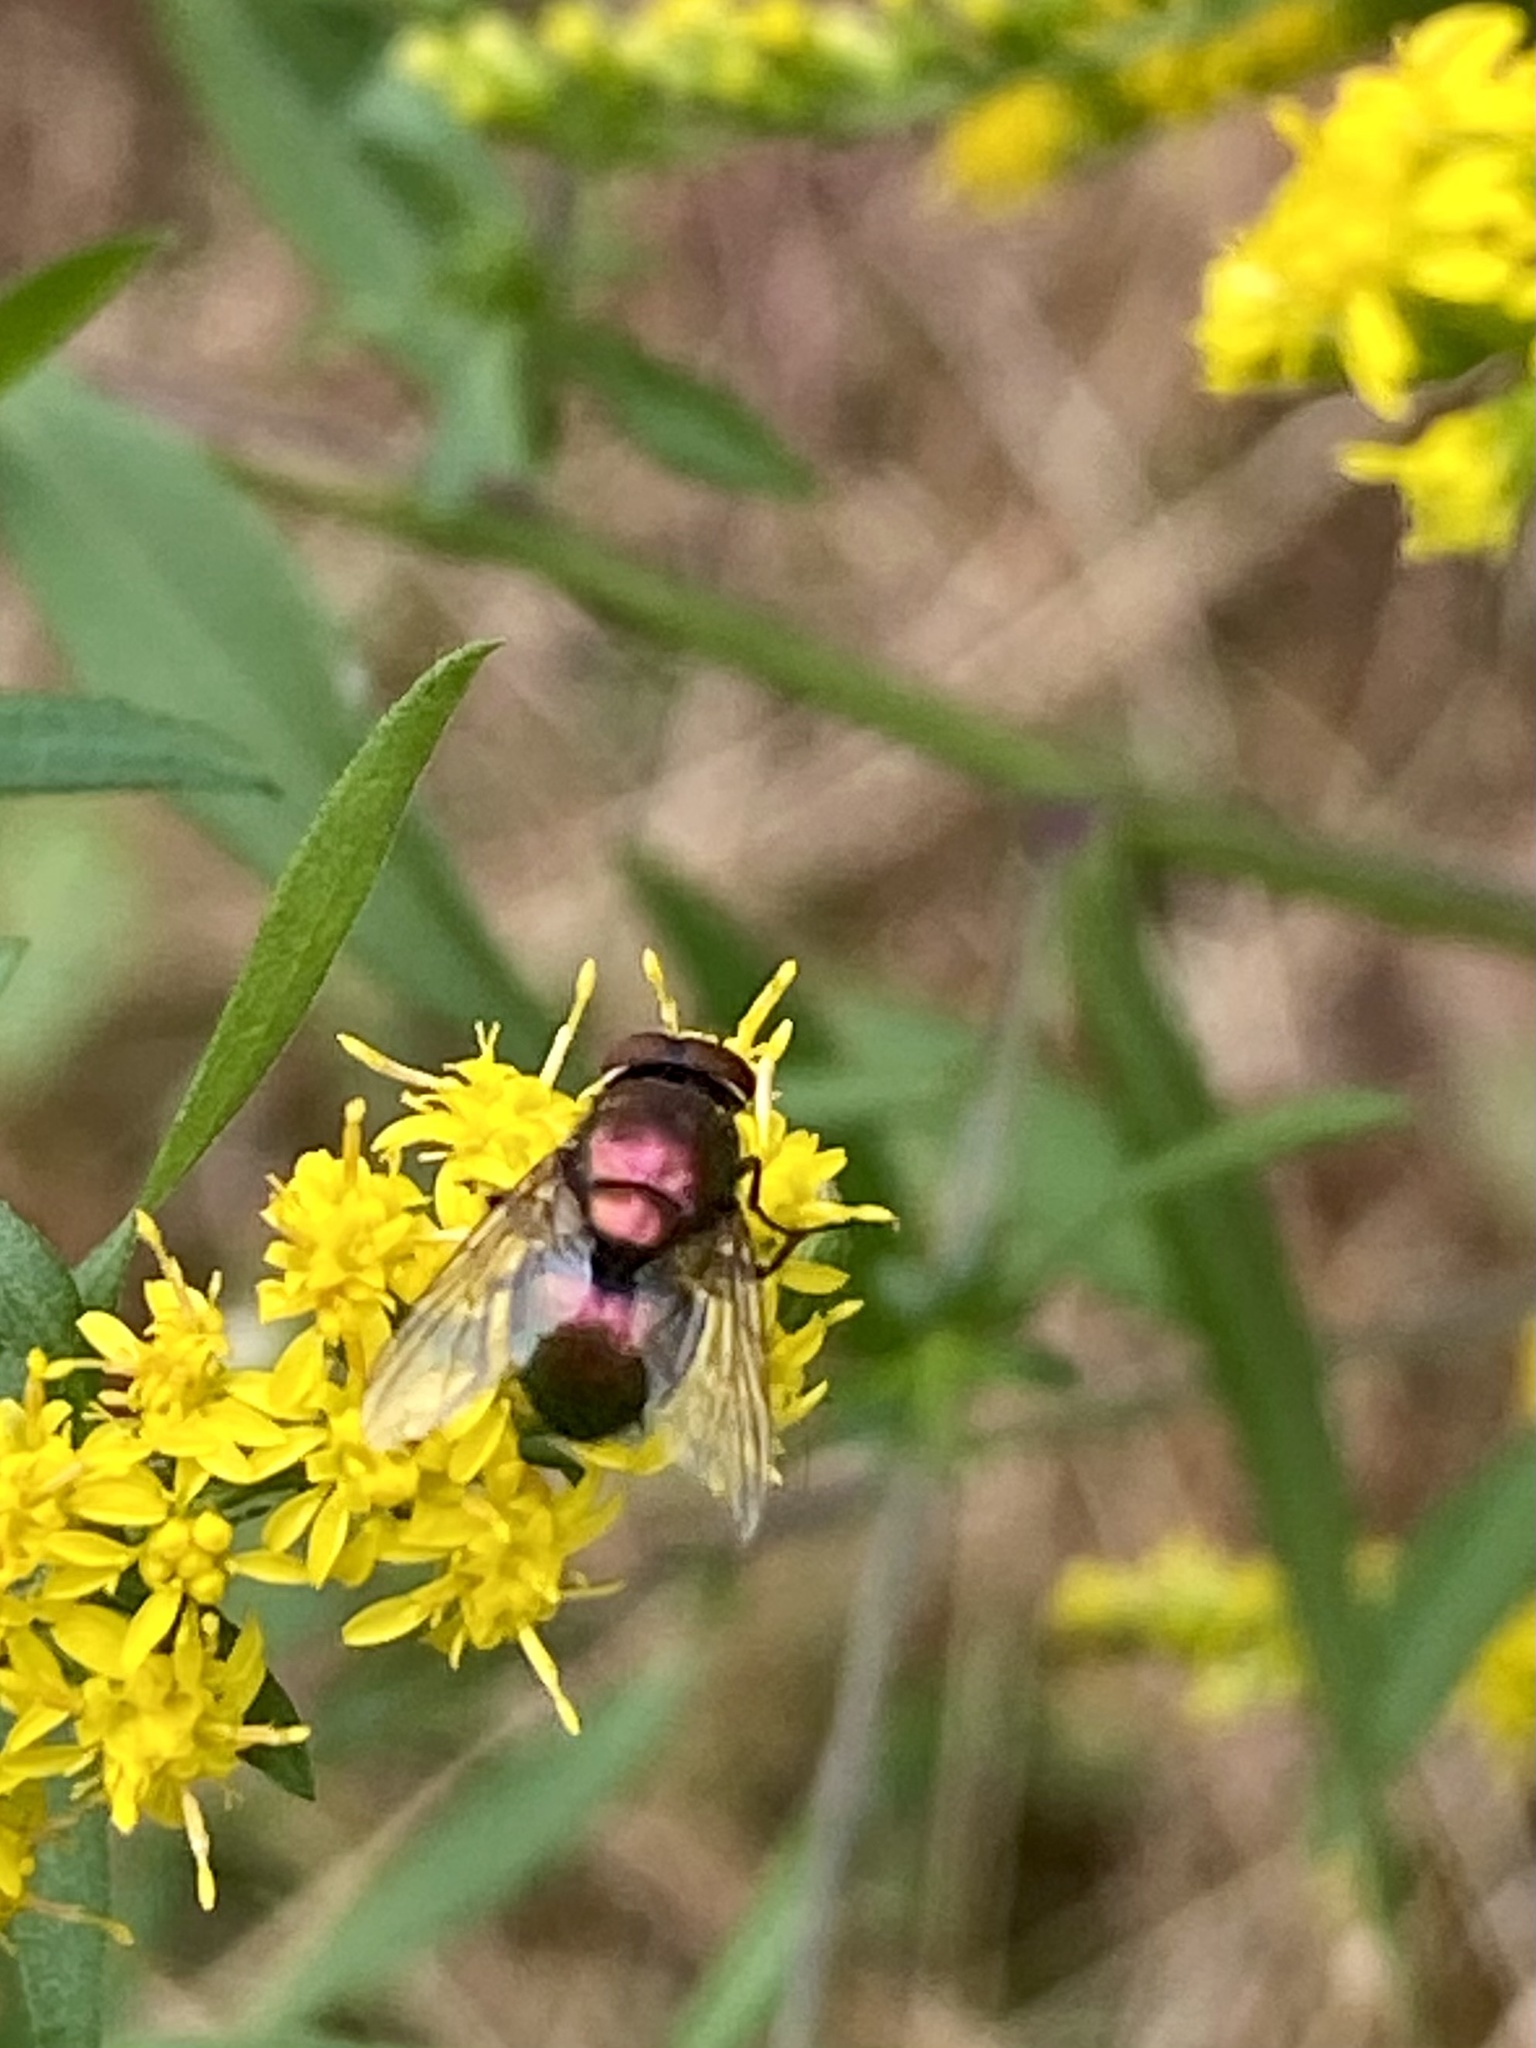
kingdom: Animalia
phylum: Arthropoda
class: Insecta
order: Diptera
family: Calliphoridae
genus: Lucilia
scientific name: Lucilia sericata
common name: Blow fly
